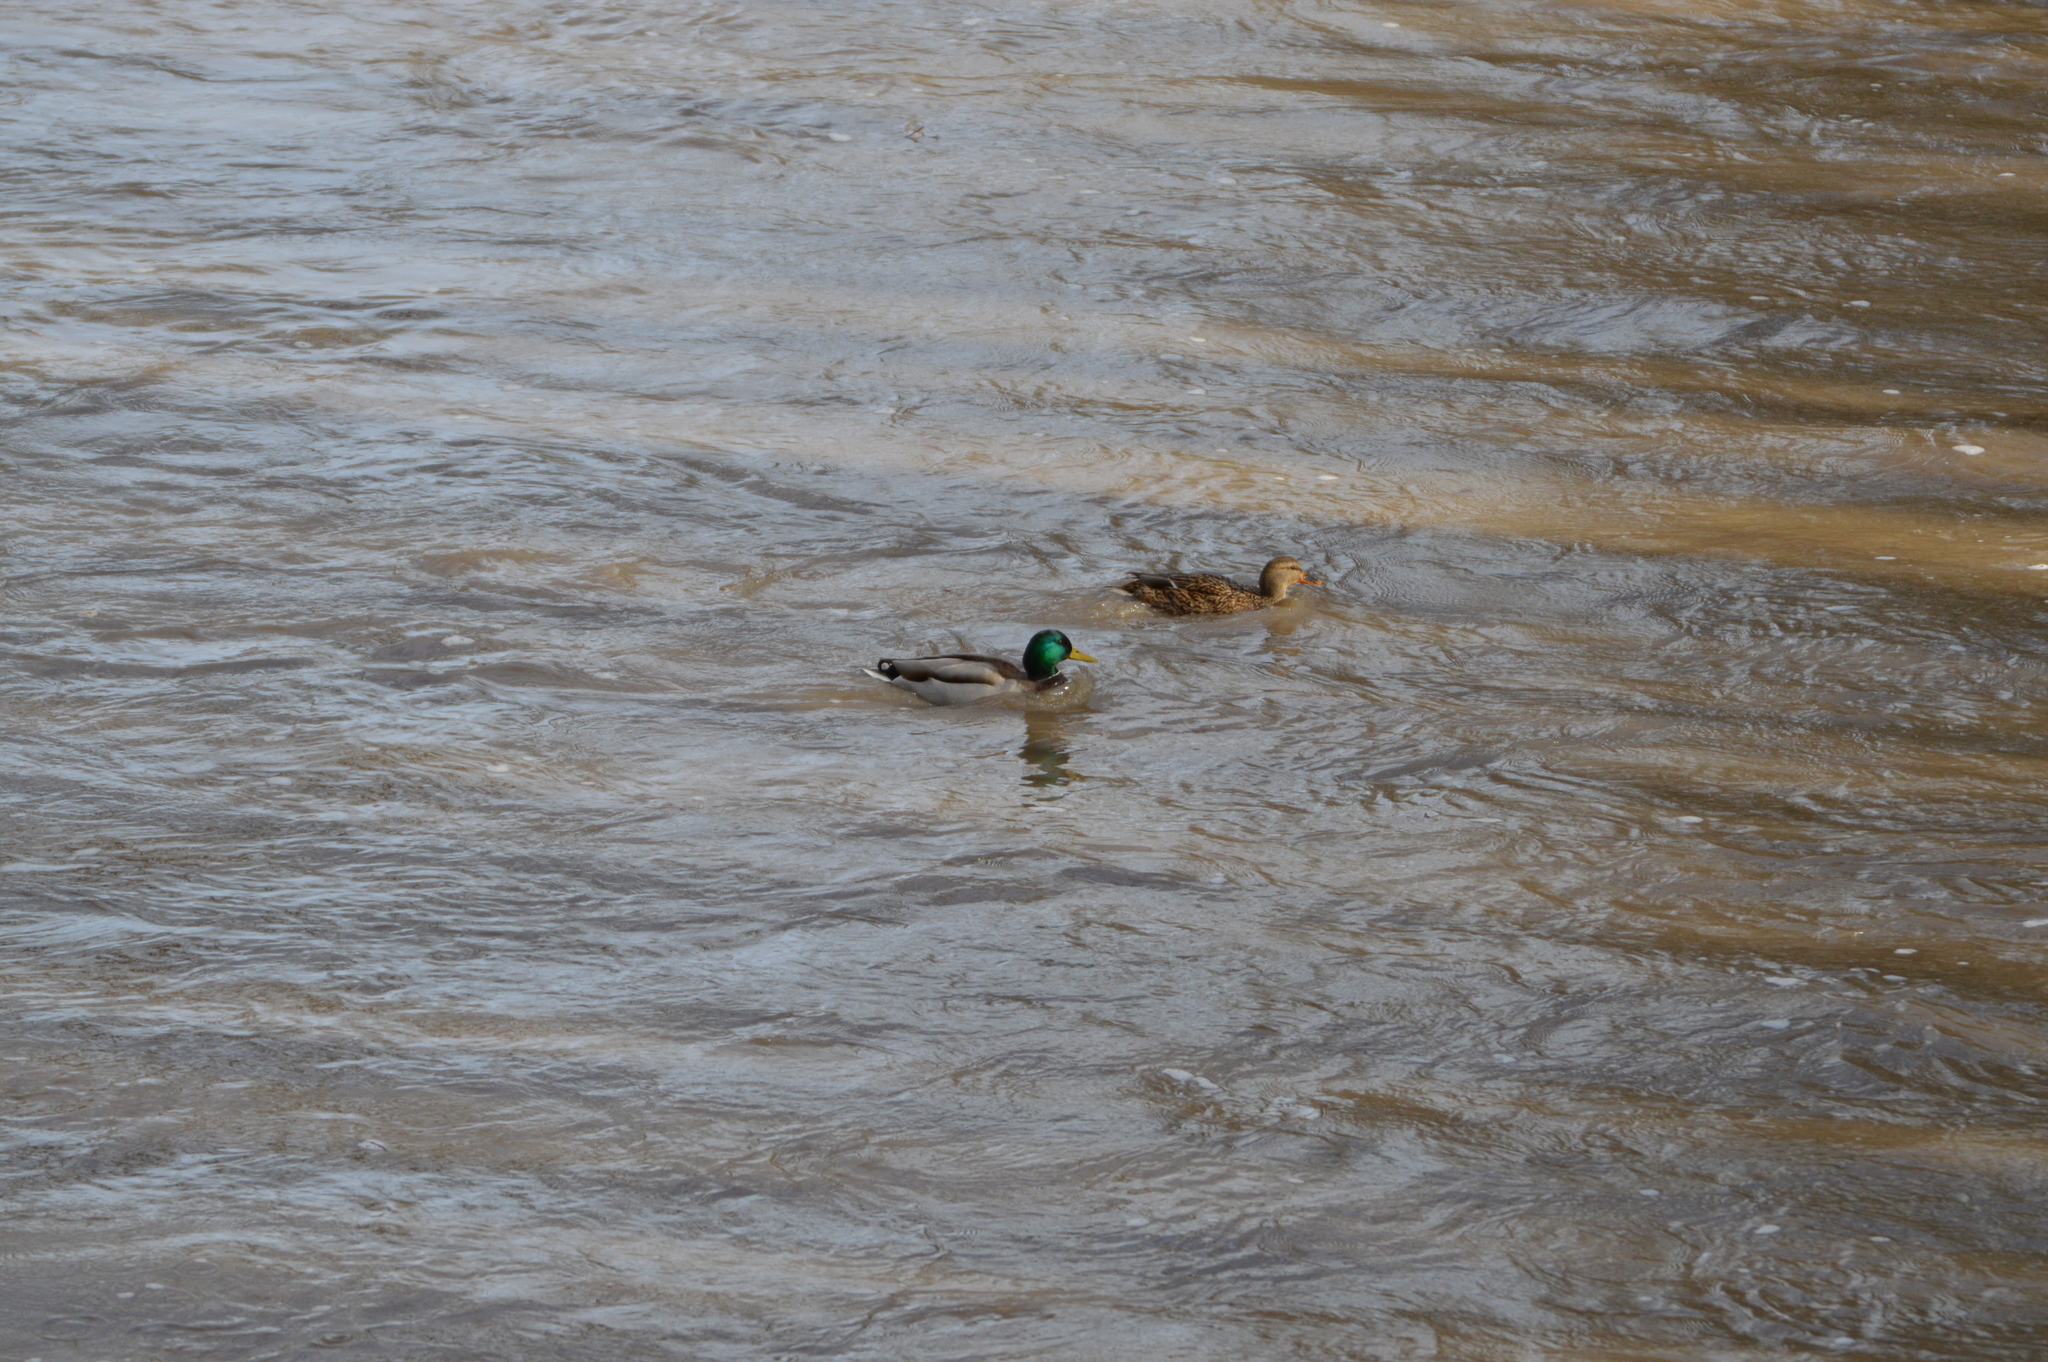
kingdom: Animalia
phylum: Chordata
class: Aves
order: Anseriformes
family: Anatidae
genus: Anas
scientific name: Anas platyrhynchos
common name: Mallard
